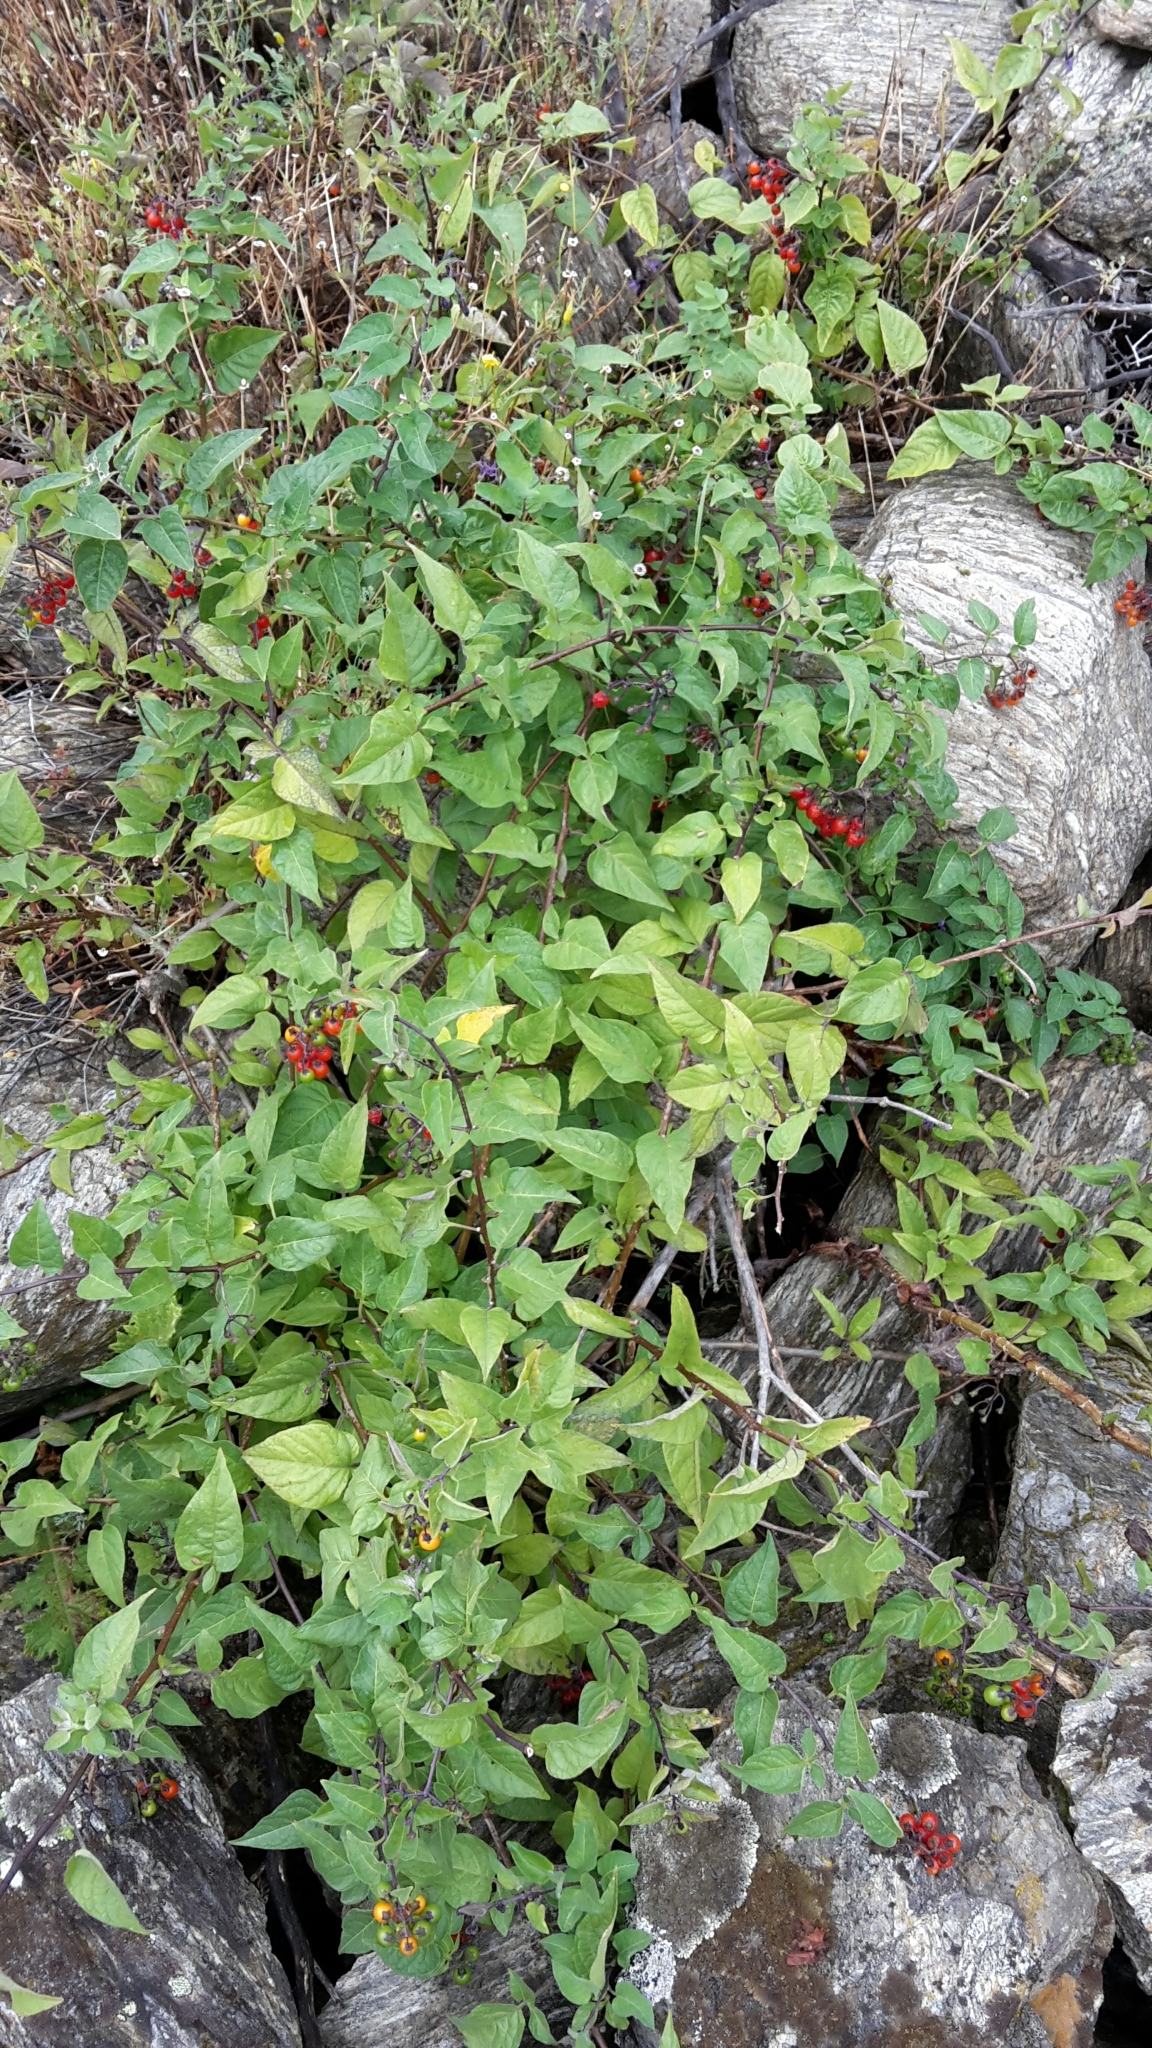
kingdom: Plantae
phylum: Tracheophyta
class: Magnoliopsida
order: Solanales
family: Solanaceae
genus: Solanum
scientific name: Solanum dulcamara
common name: Climbing nightshade
